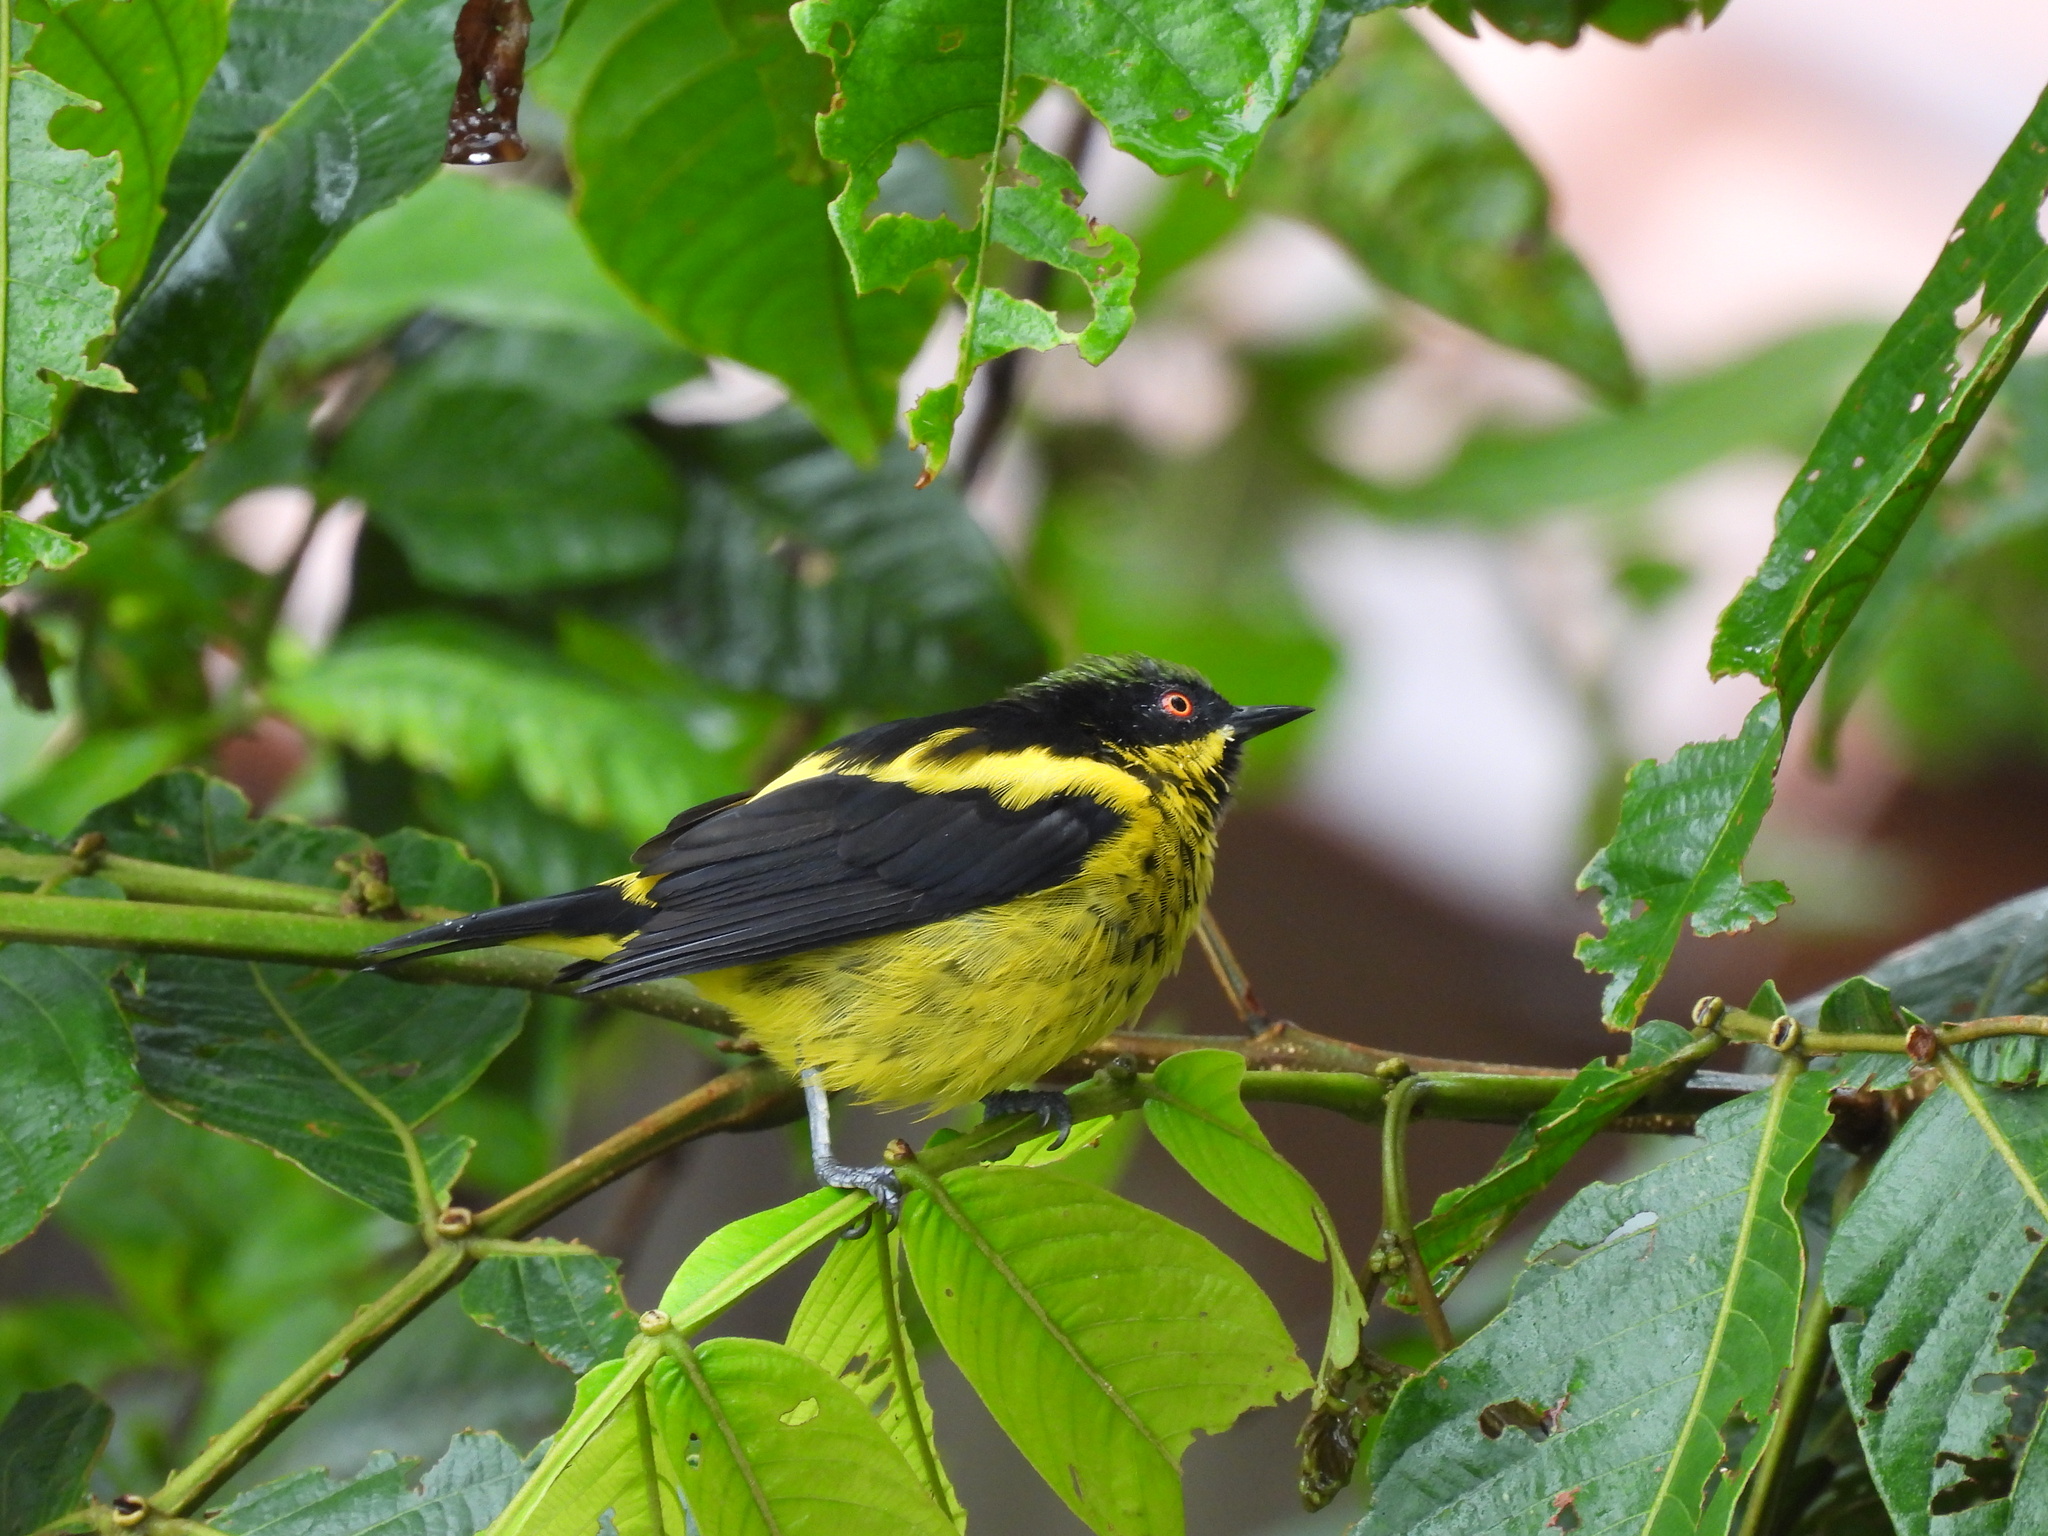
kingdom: Animalia
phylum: Chordata
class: Aves
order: Passeriformes
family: Thraupidae
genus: Dacnis
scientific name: Dacnis flaviventer
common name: Yellow-bellied dacnis
